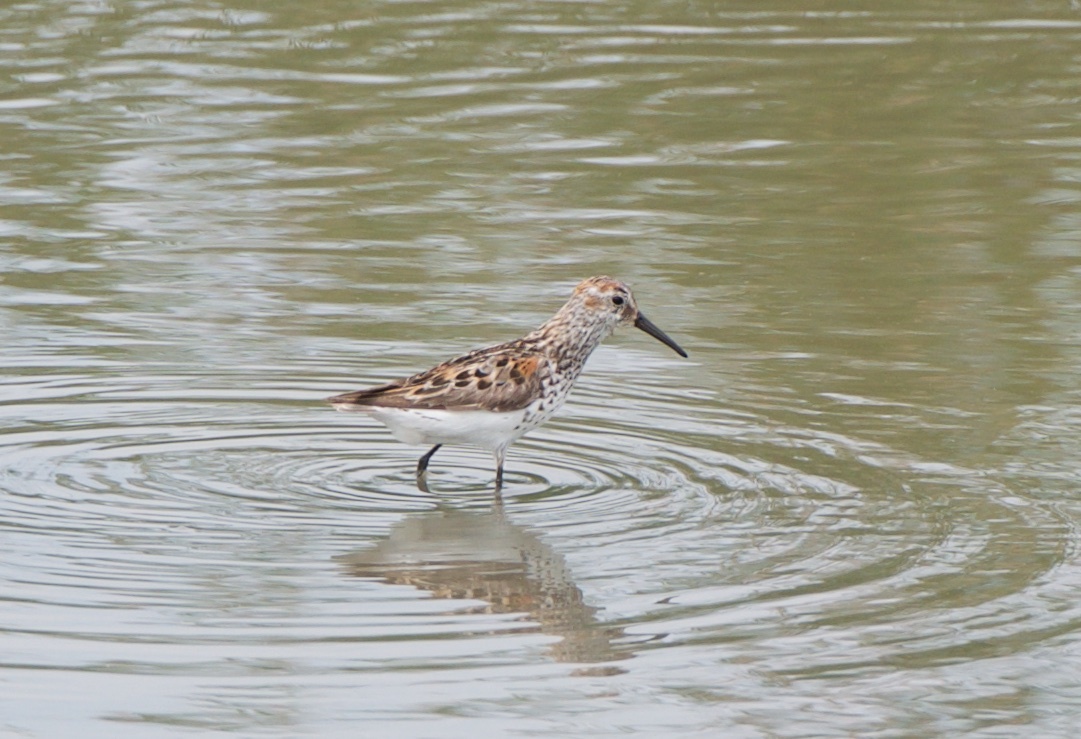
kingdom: Animalia
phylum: Chordata
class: Aves
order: Charadriiformes
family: Scolopacidae
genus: Calidris
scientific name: Calidris mauri
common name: Western sandpiper
